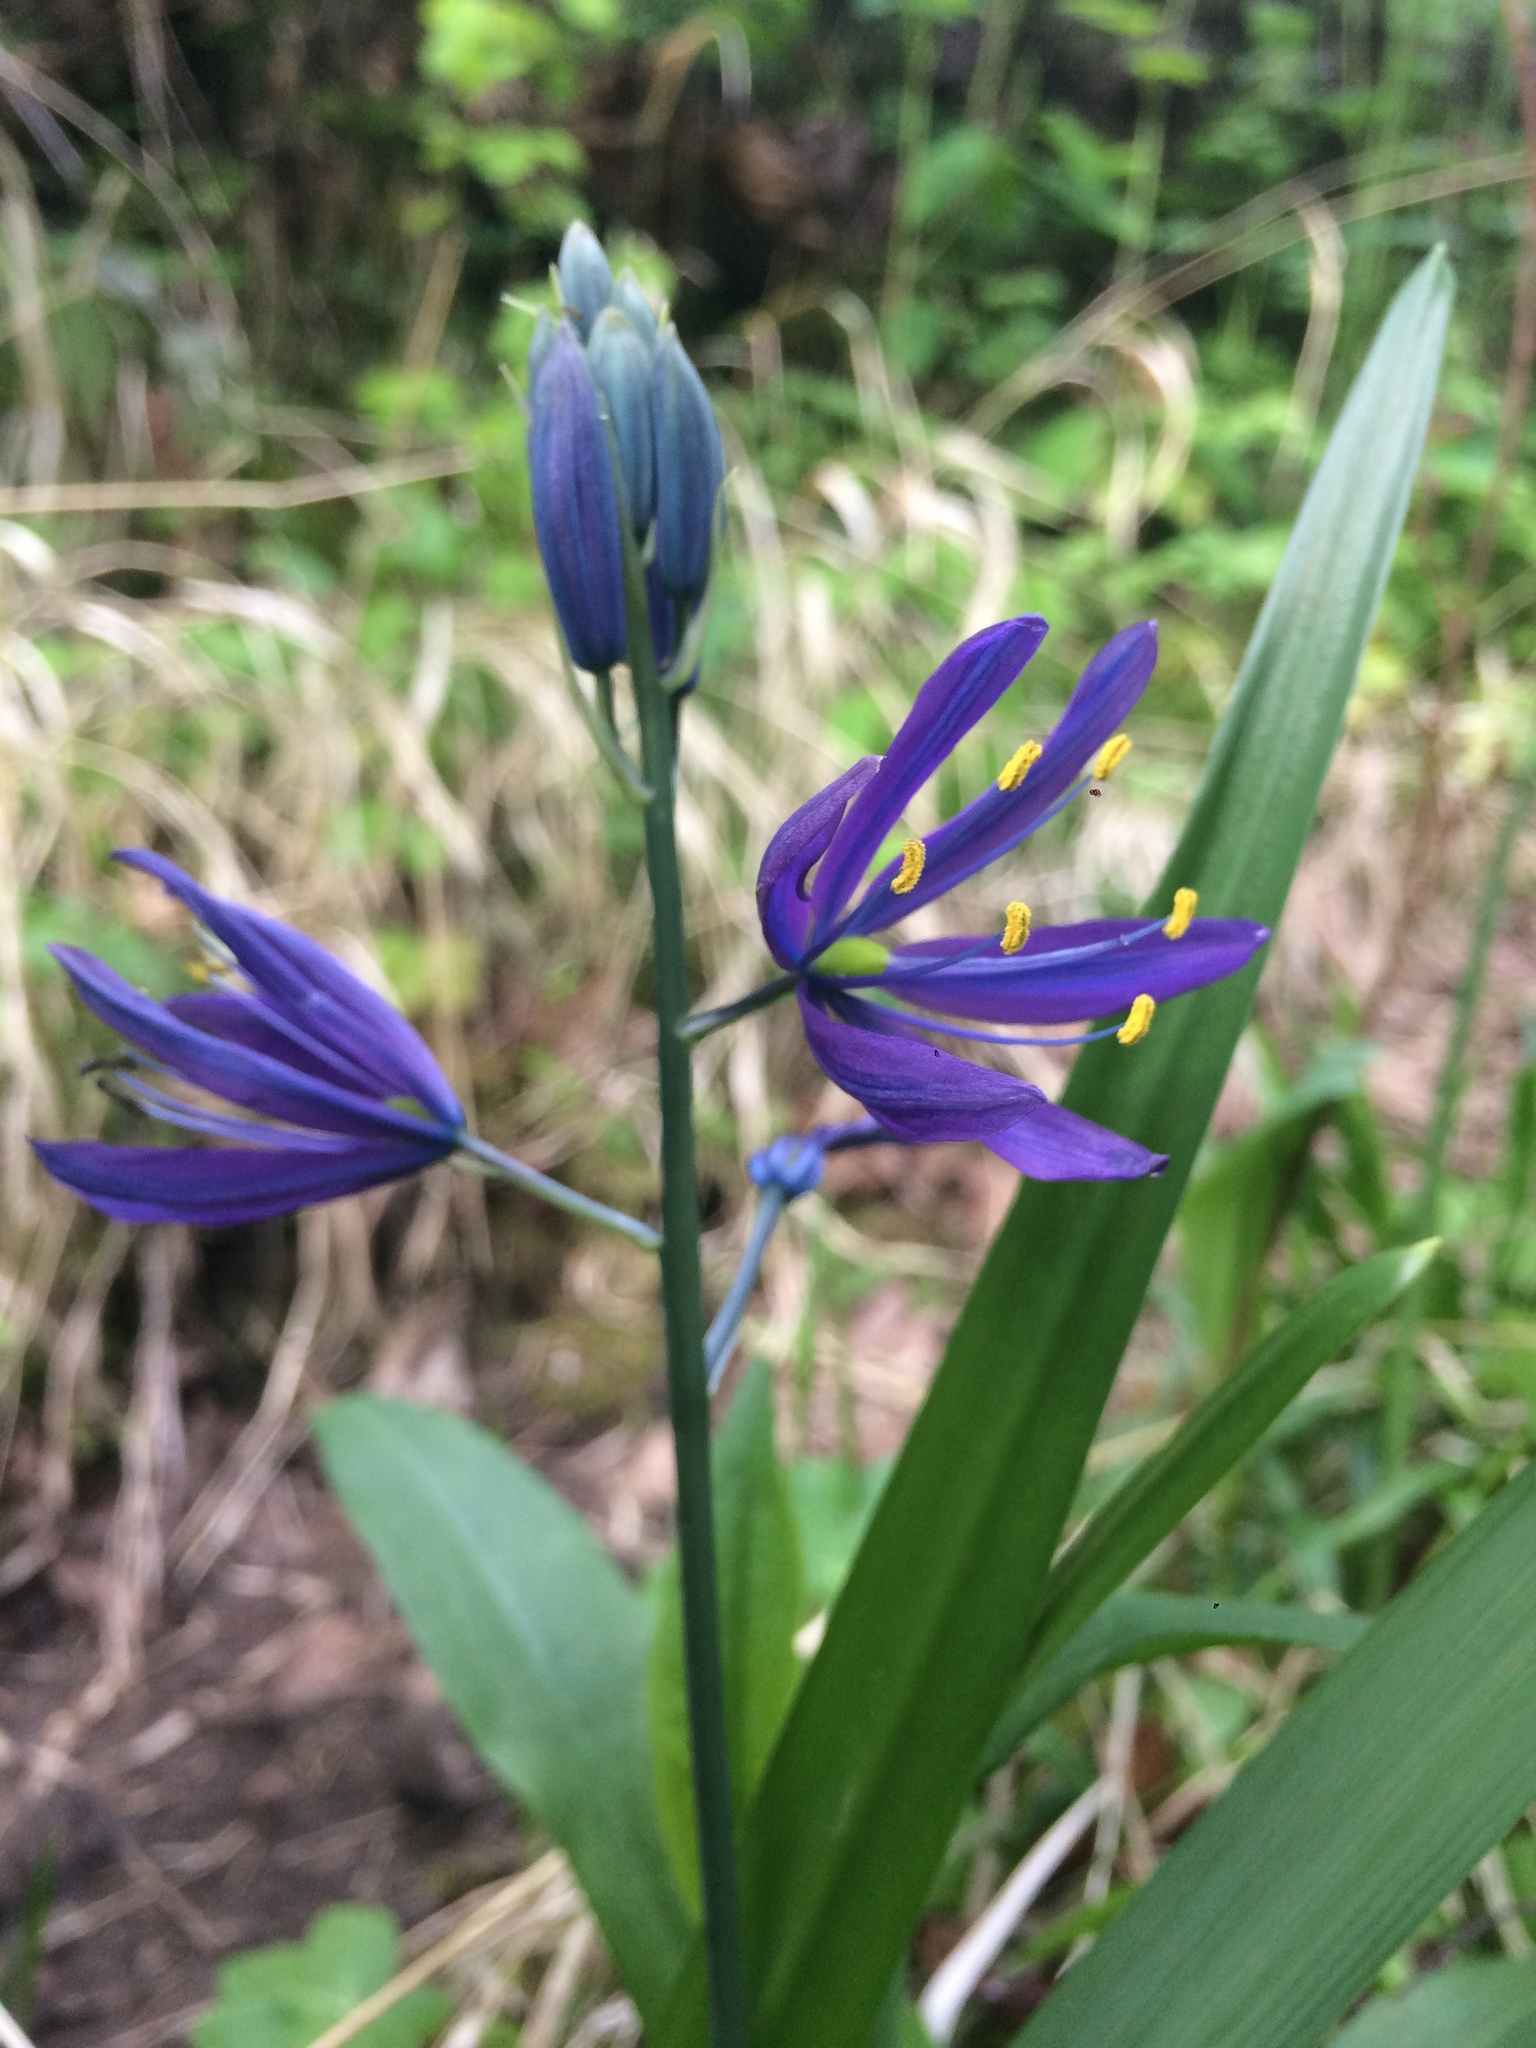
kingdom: Plantae
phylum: Tracheophyta
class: Liliopsida
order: Asparagales
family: Asparagaceae
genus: Camassia
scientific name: Camassia leichtlinii
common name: Leichtlin's camas
